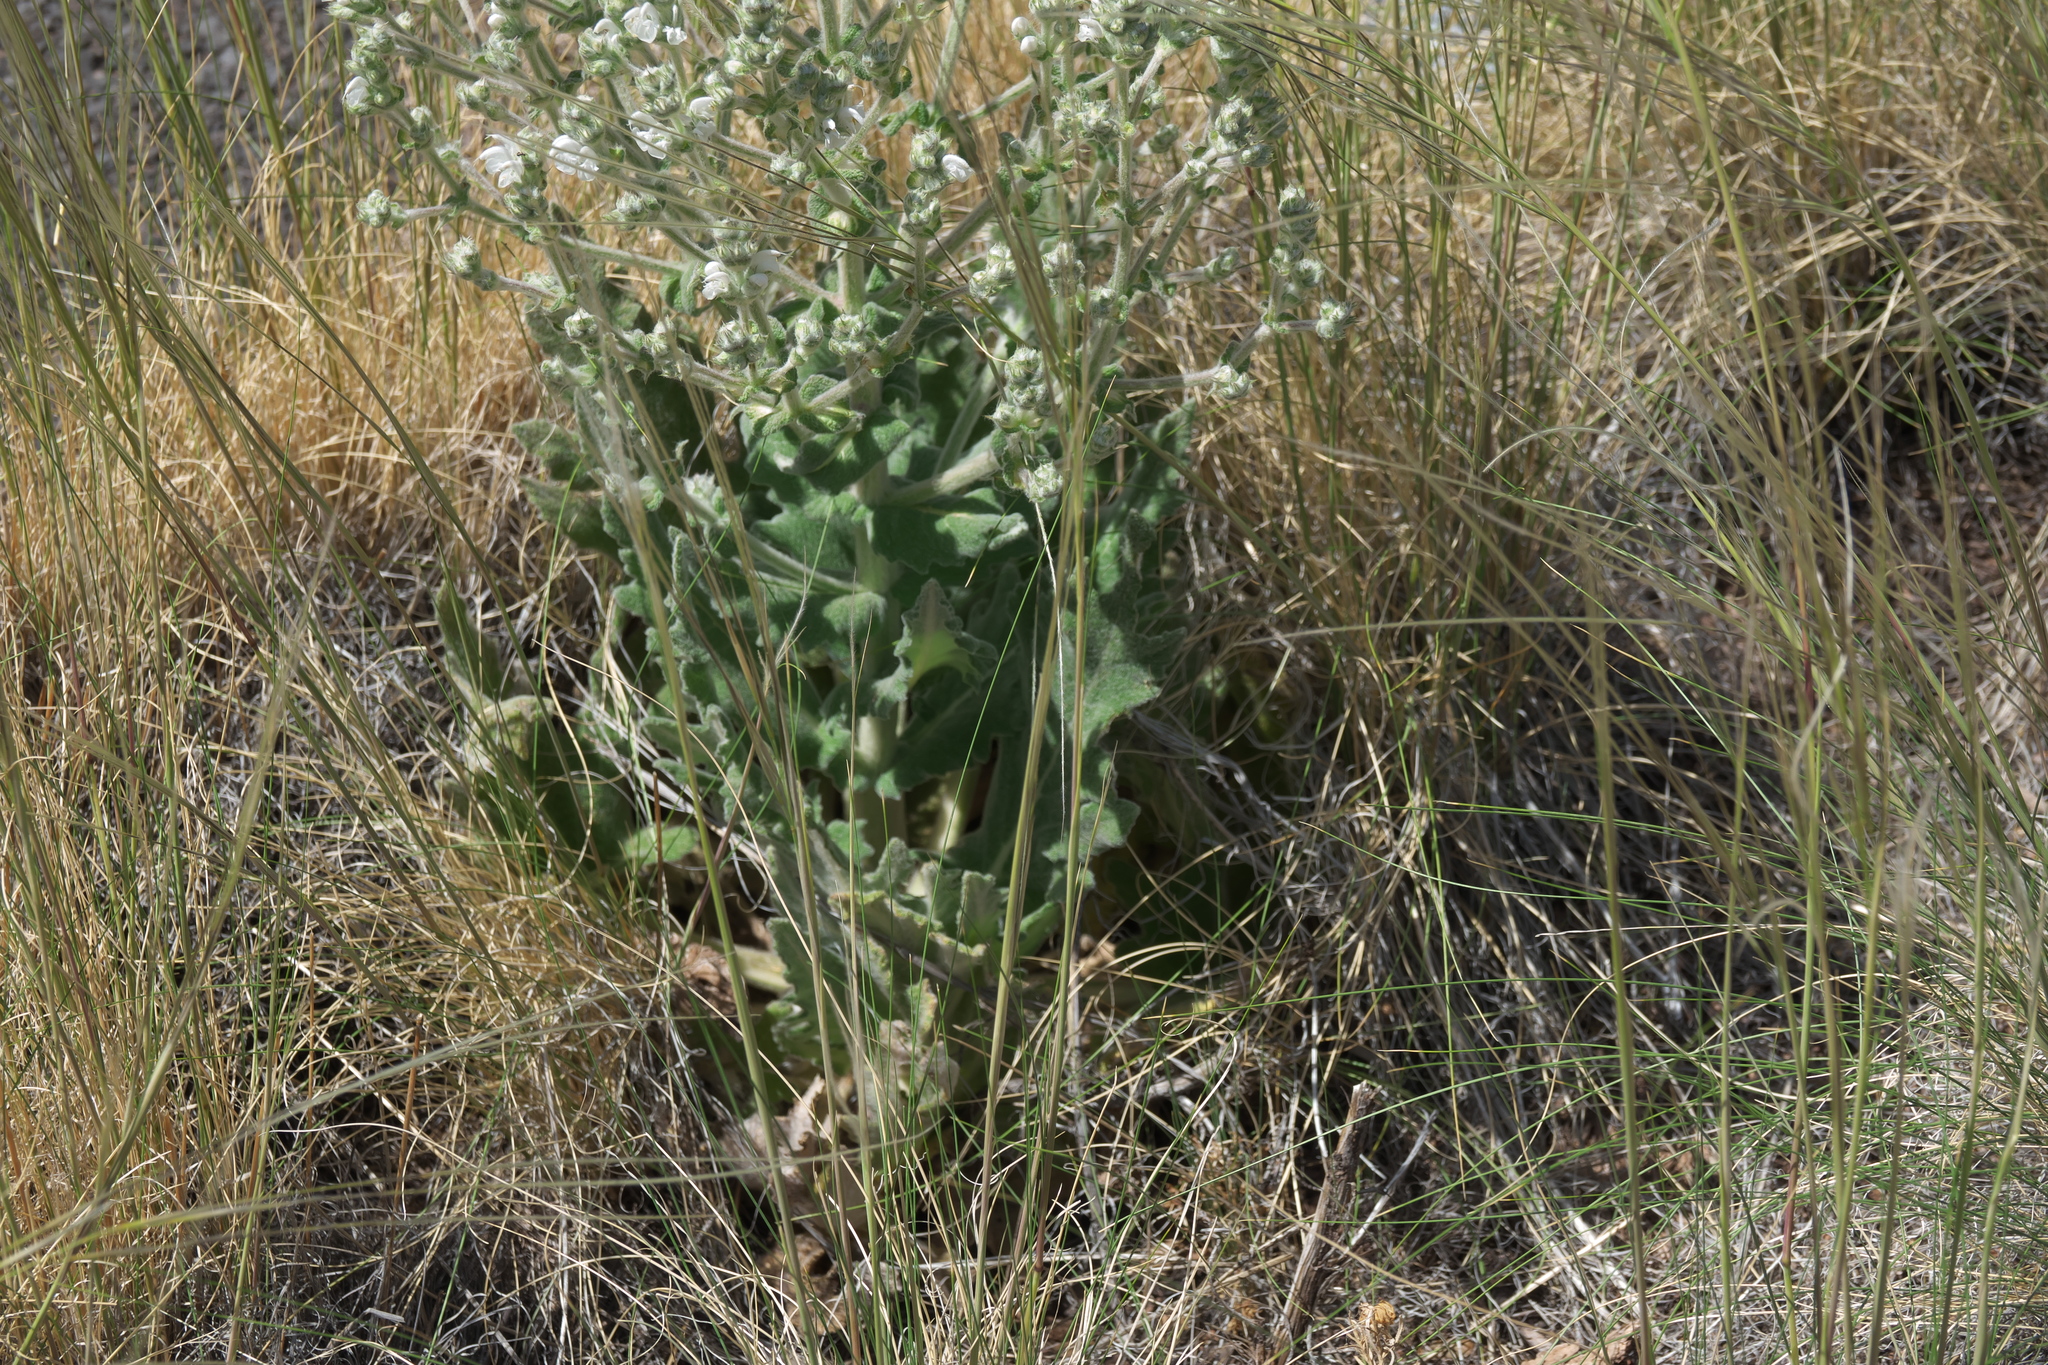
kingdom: Plantae
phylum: Tracheophyta
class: Magnoliopsida
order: Lamiales
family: Lamiaceae
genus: Salvia
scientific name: Salvia aethiopis
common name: Mediterranean sage
